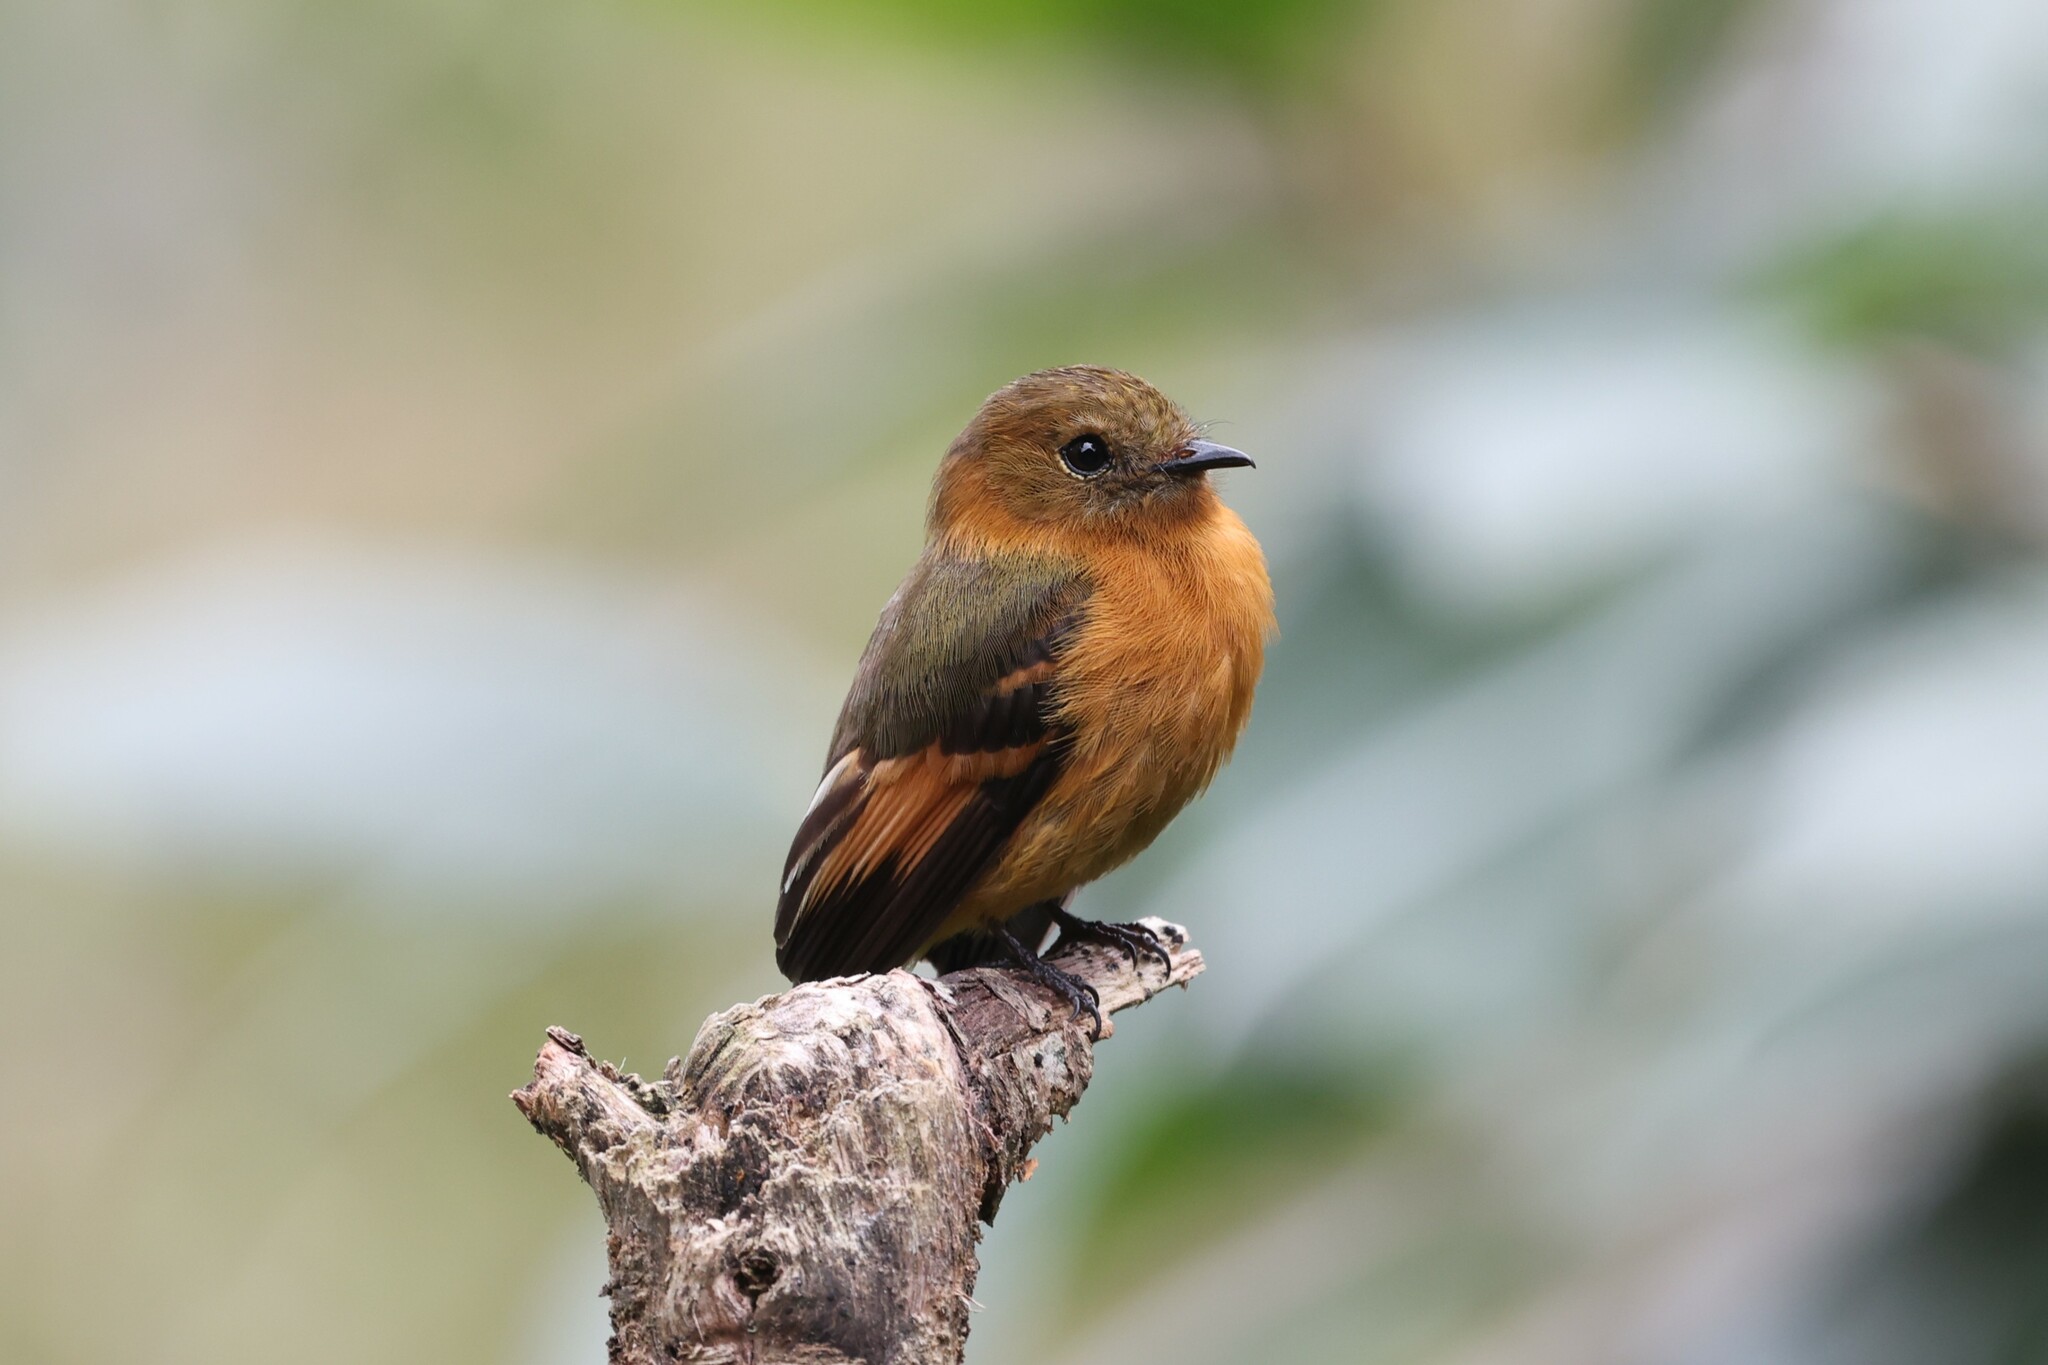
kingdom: Animalia
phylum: Chordata
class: Aves
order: Passeriformes
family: Tyrannidae
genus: Pyrrhomyias
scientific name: Pyrrhomyias cinnamomeus
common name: Cinnamon flycatcher
